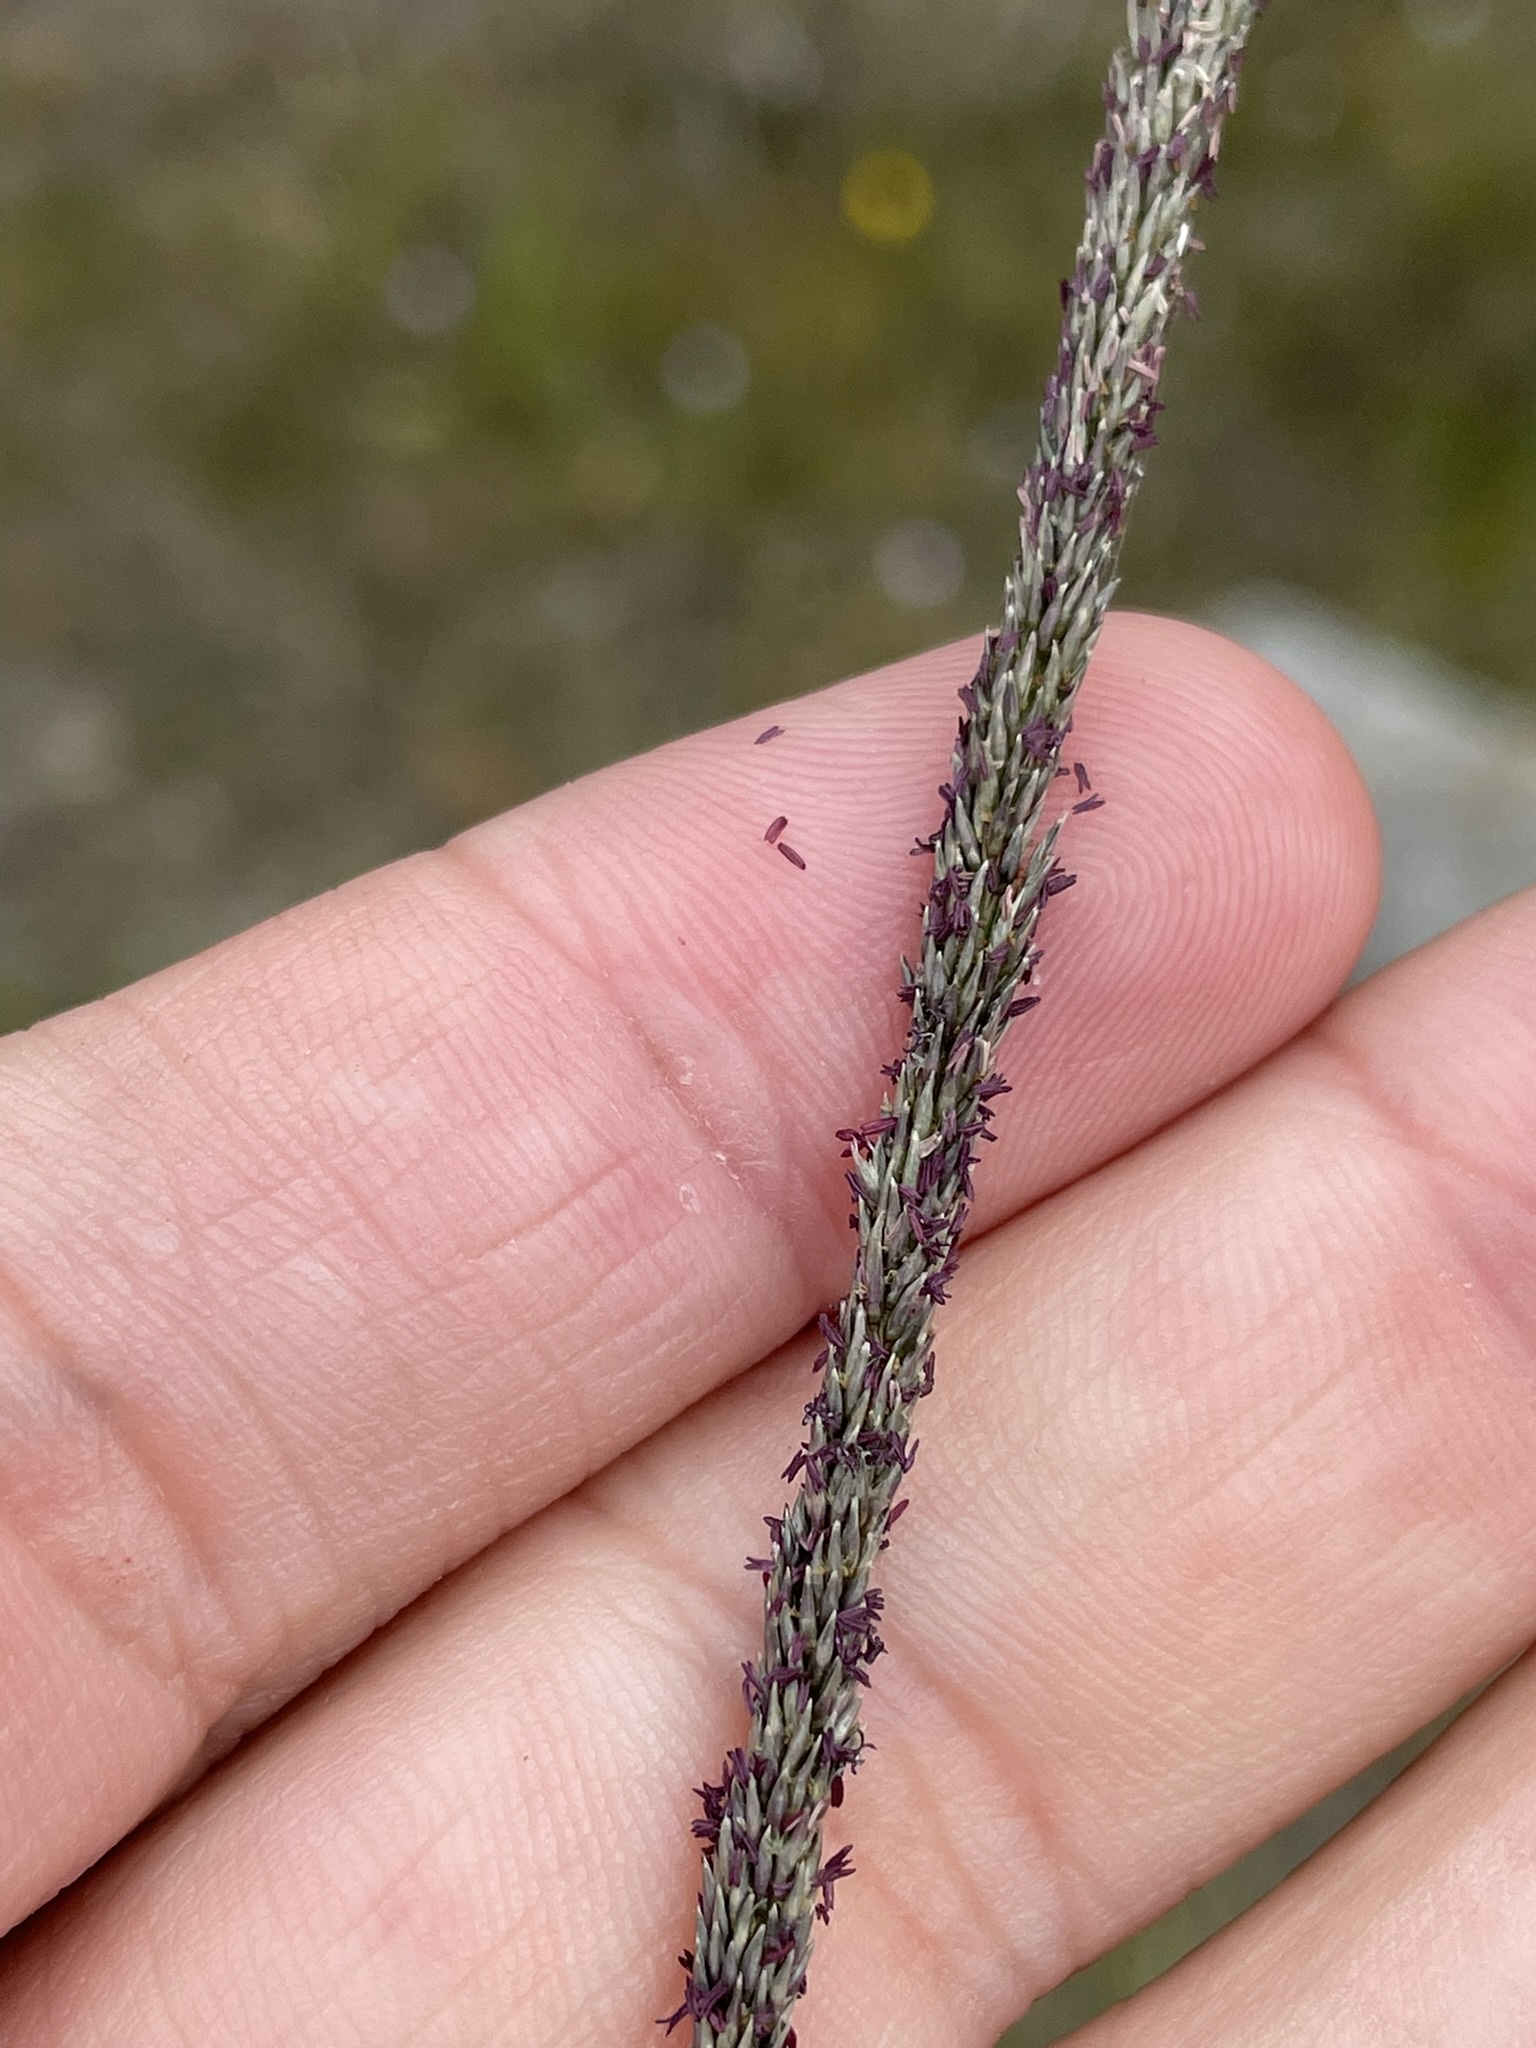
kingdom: Plantae
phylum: Tracheophyta
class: Liliopsida
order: Poales
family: Poaceae
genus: Sporobolus
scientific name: Sporobolus africanus
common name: African dropseed
